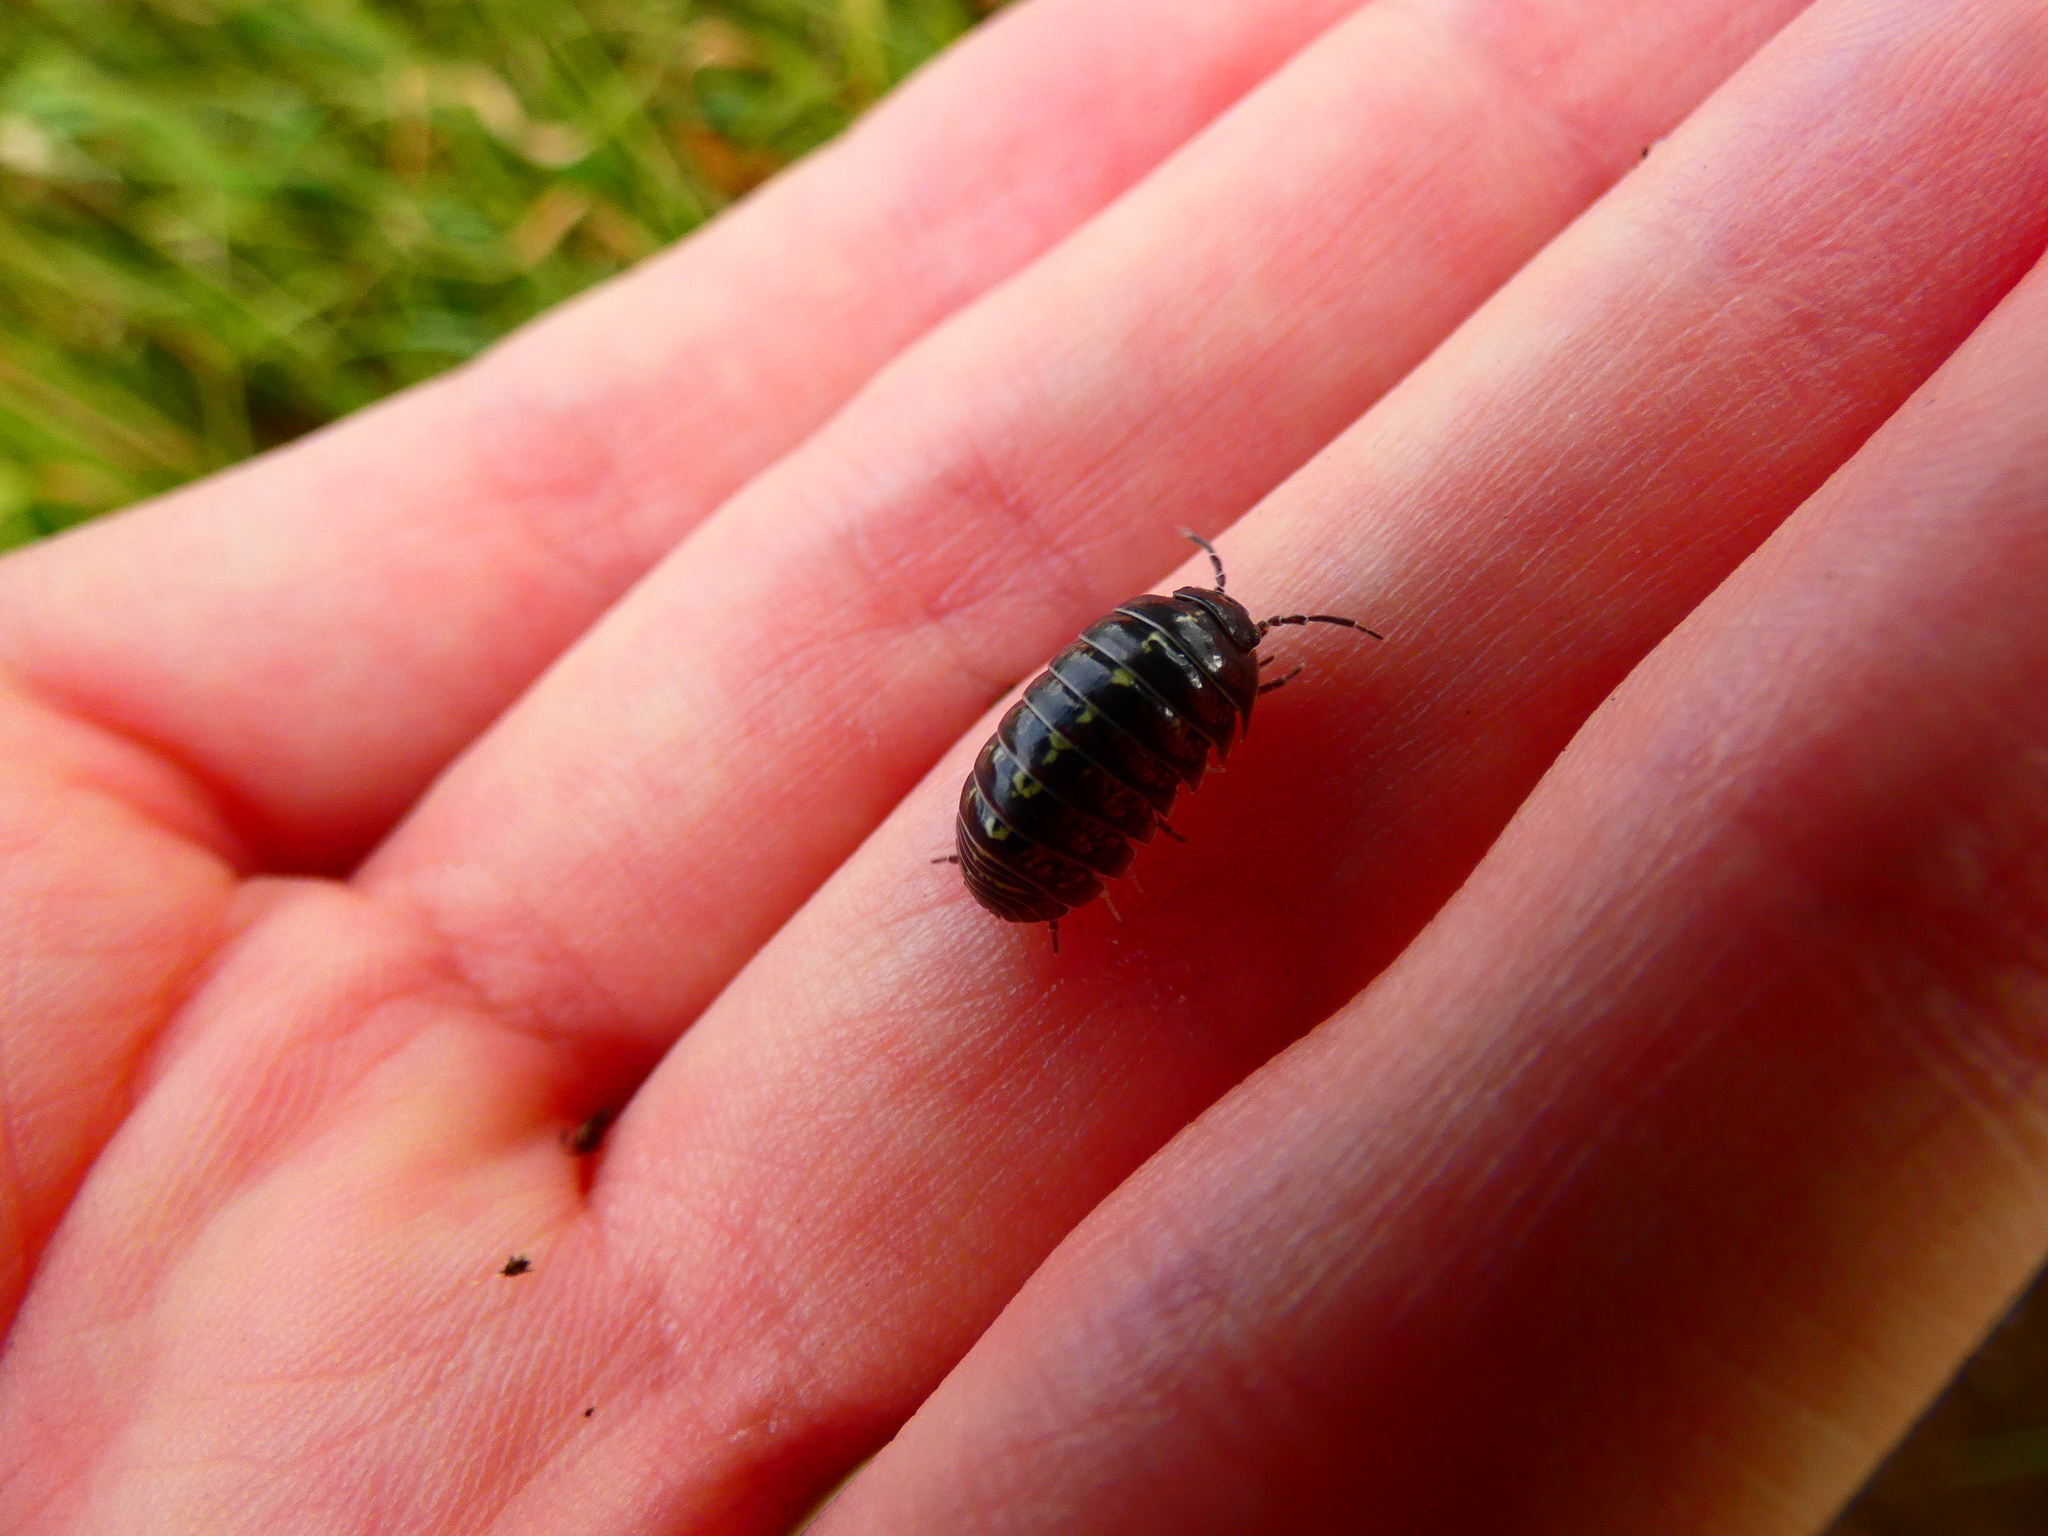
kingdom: Animalia
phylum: Arthropoda
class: Malacostraca
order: Isopoda
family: Armadillidiidae
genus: Armadillidium
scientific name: Armadillidium vulgare
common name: Common pill woodlouse
